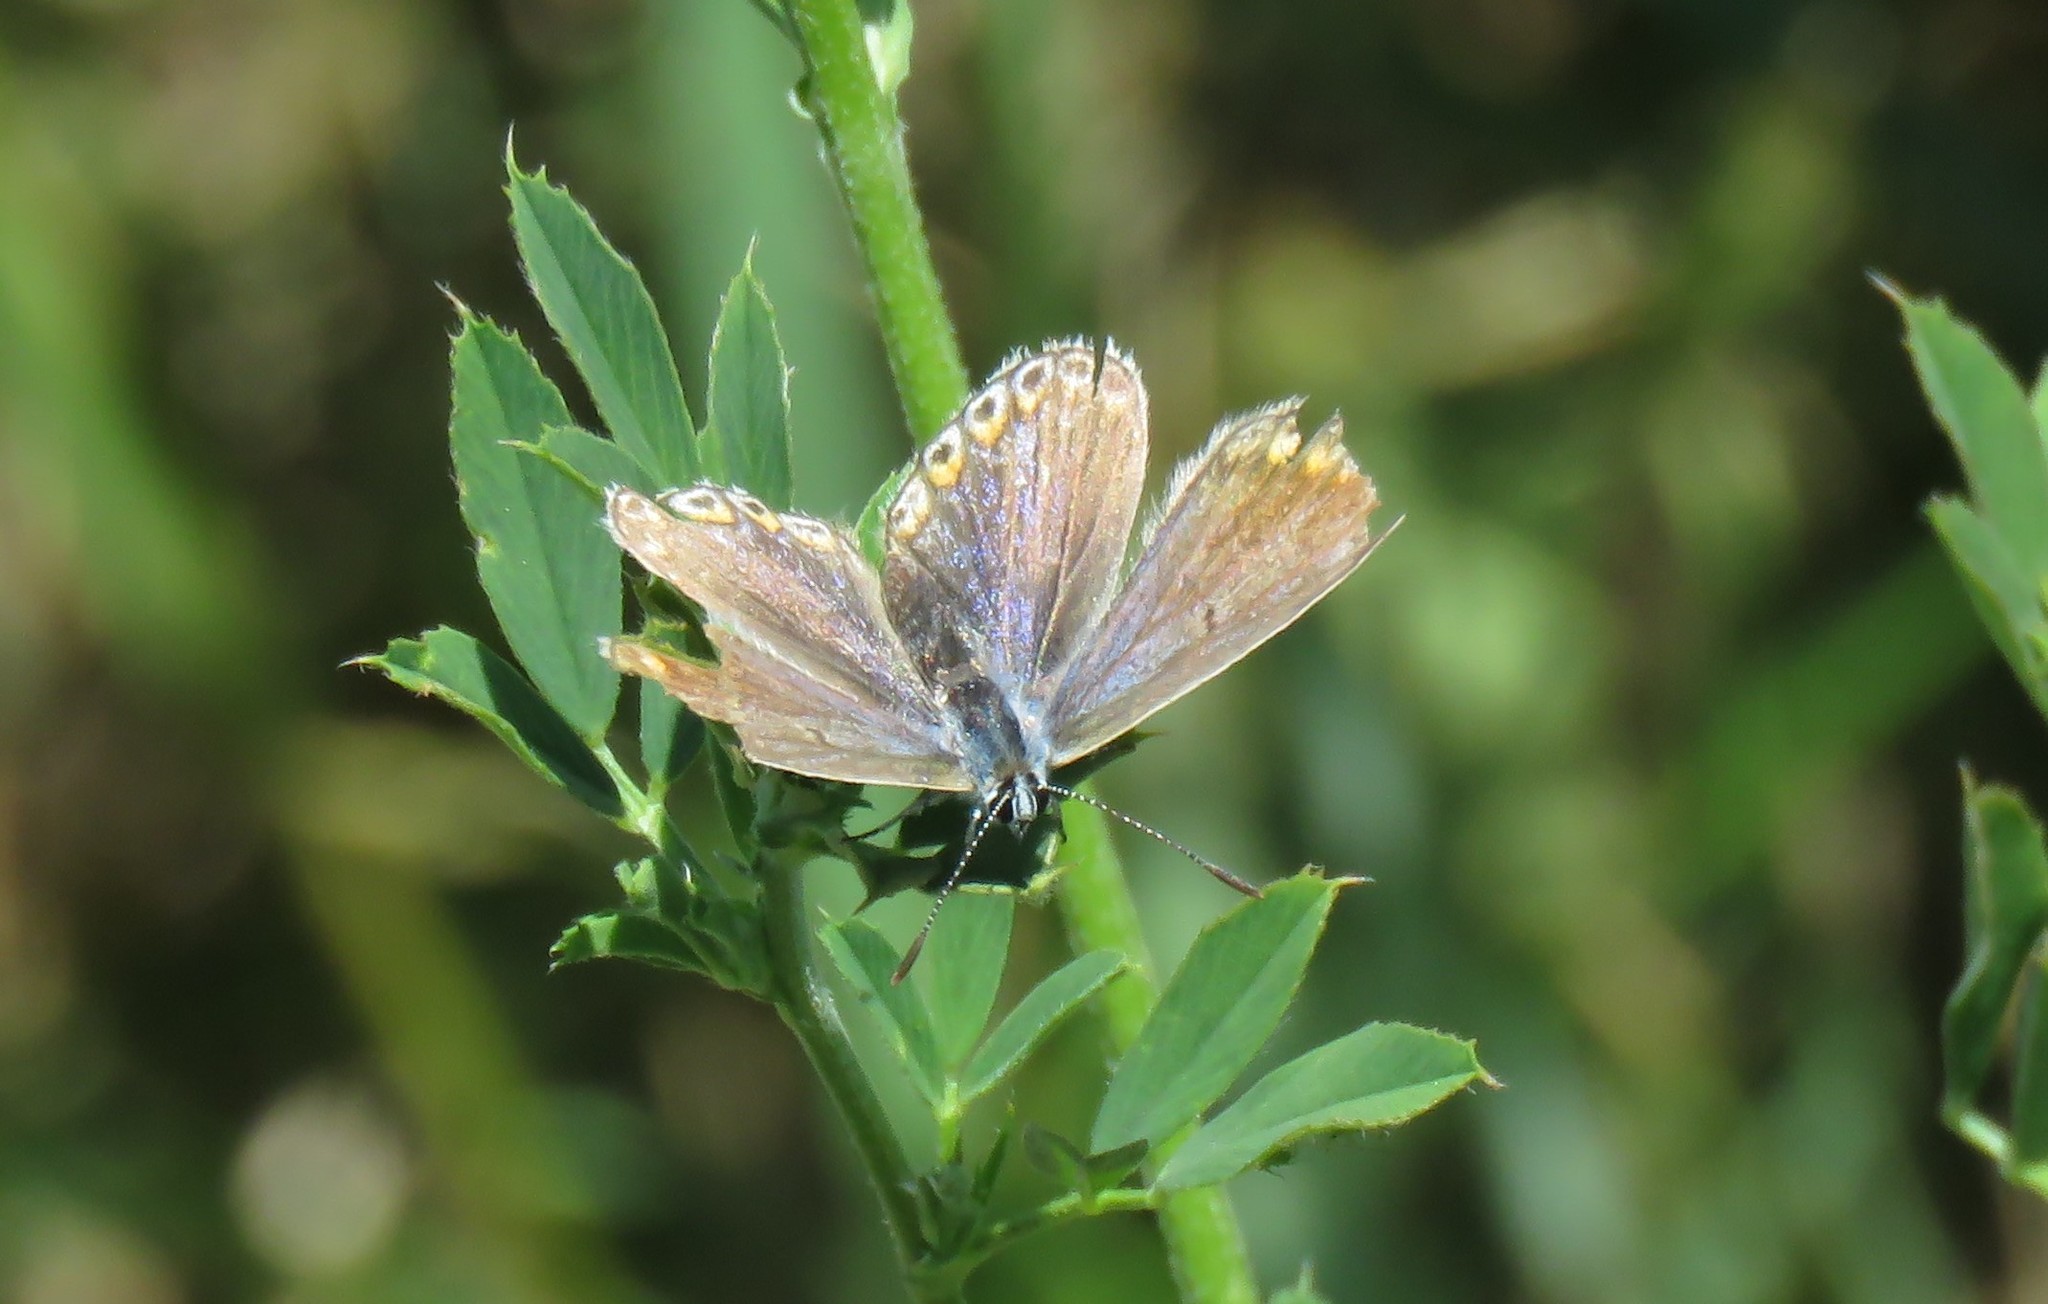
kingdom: Animalia
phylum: Arthropoda
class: Insecta
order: Lepidoptera
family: Lycaenidae
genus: Polyommatus
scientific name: Polyommatus icarus
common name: Common blue
